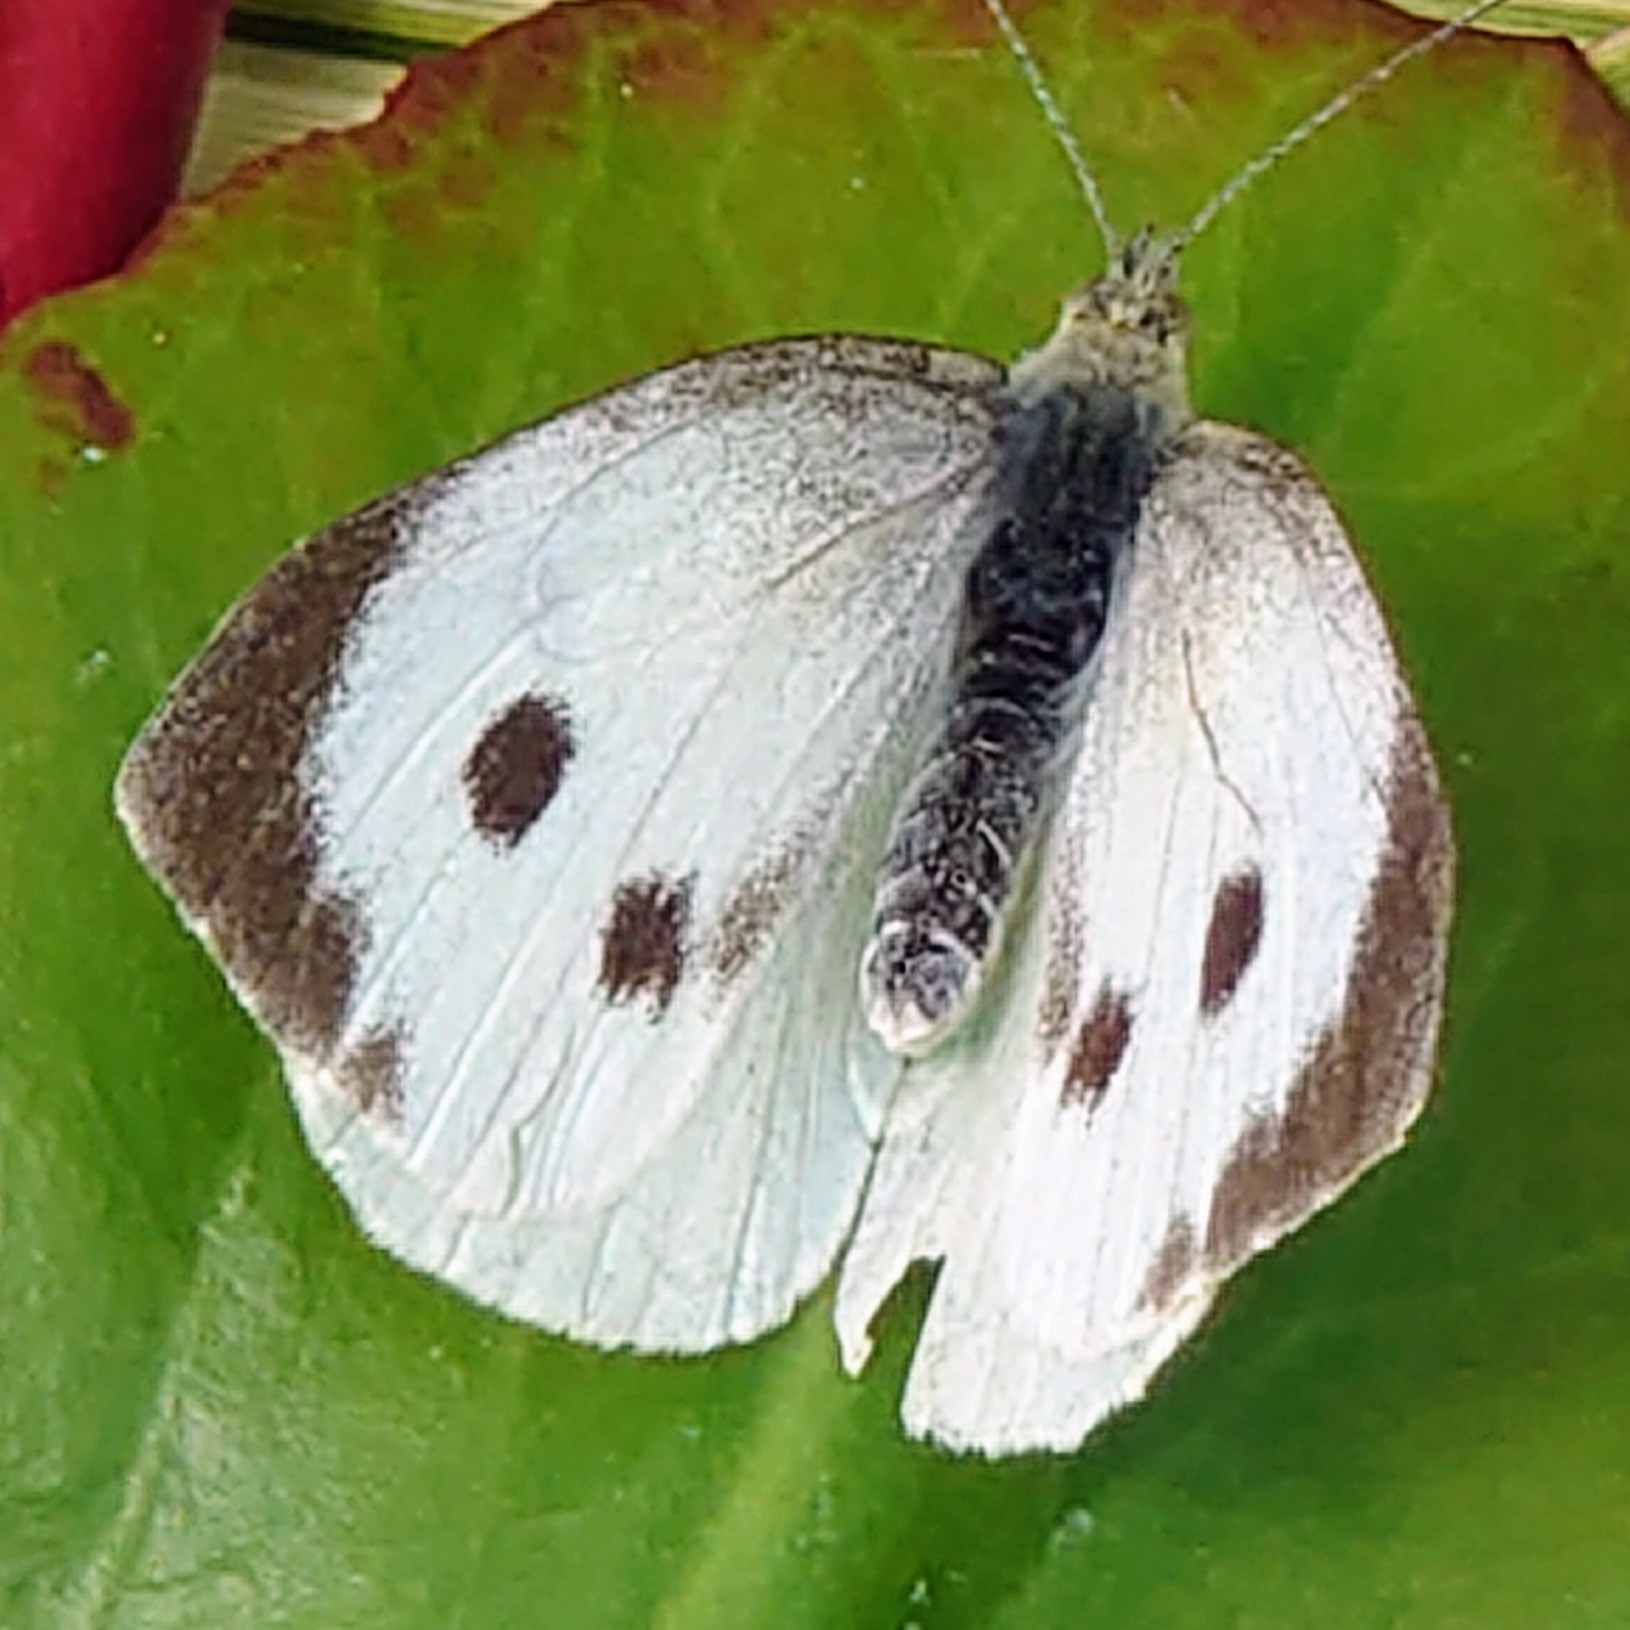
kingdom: Animalia
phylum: Arthropoda
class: Insecta
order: Lepidoptera
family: Pieridae
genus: Pieris
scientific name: Pieris brassicae
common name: Large white
